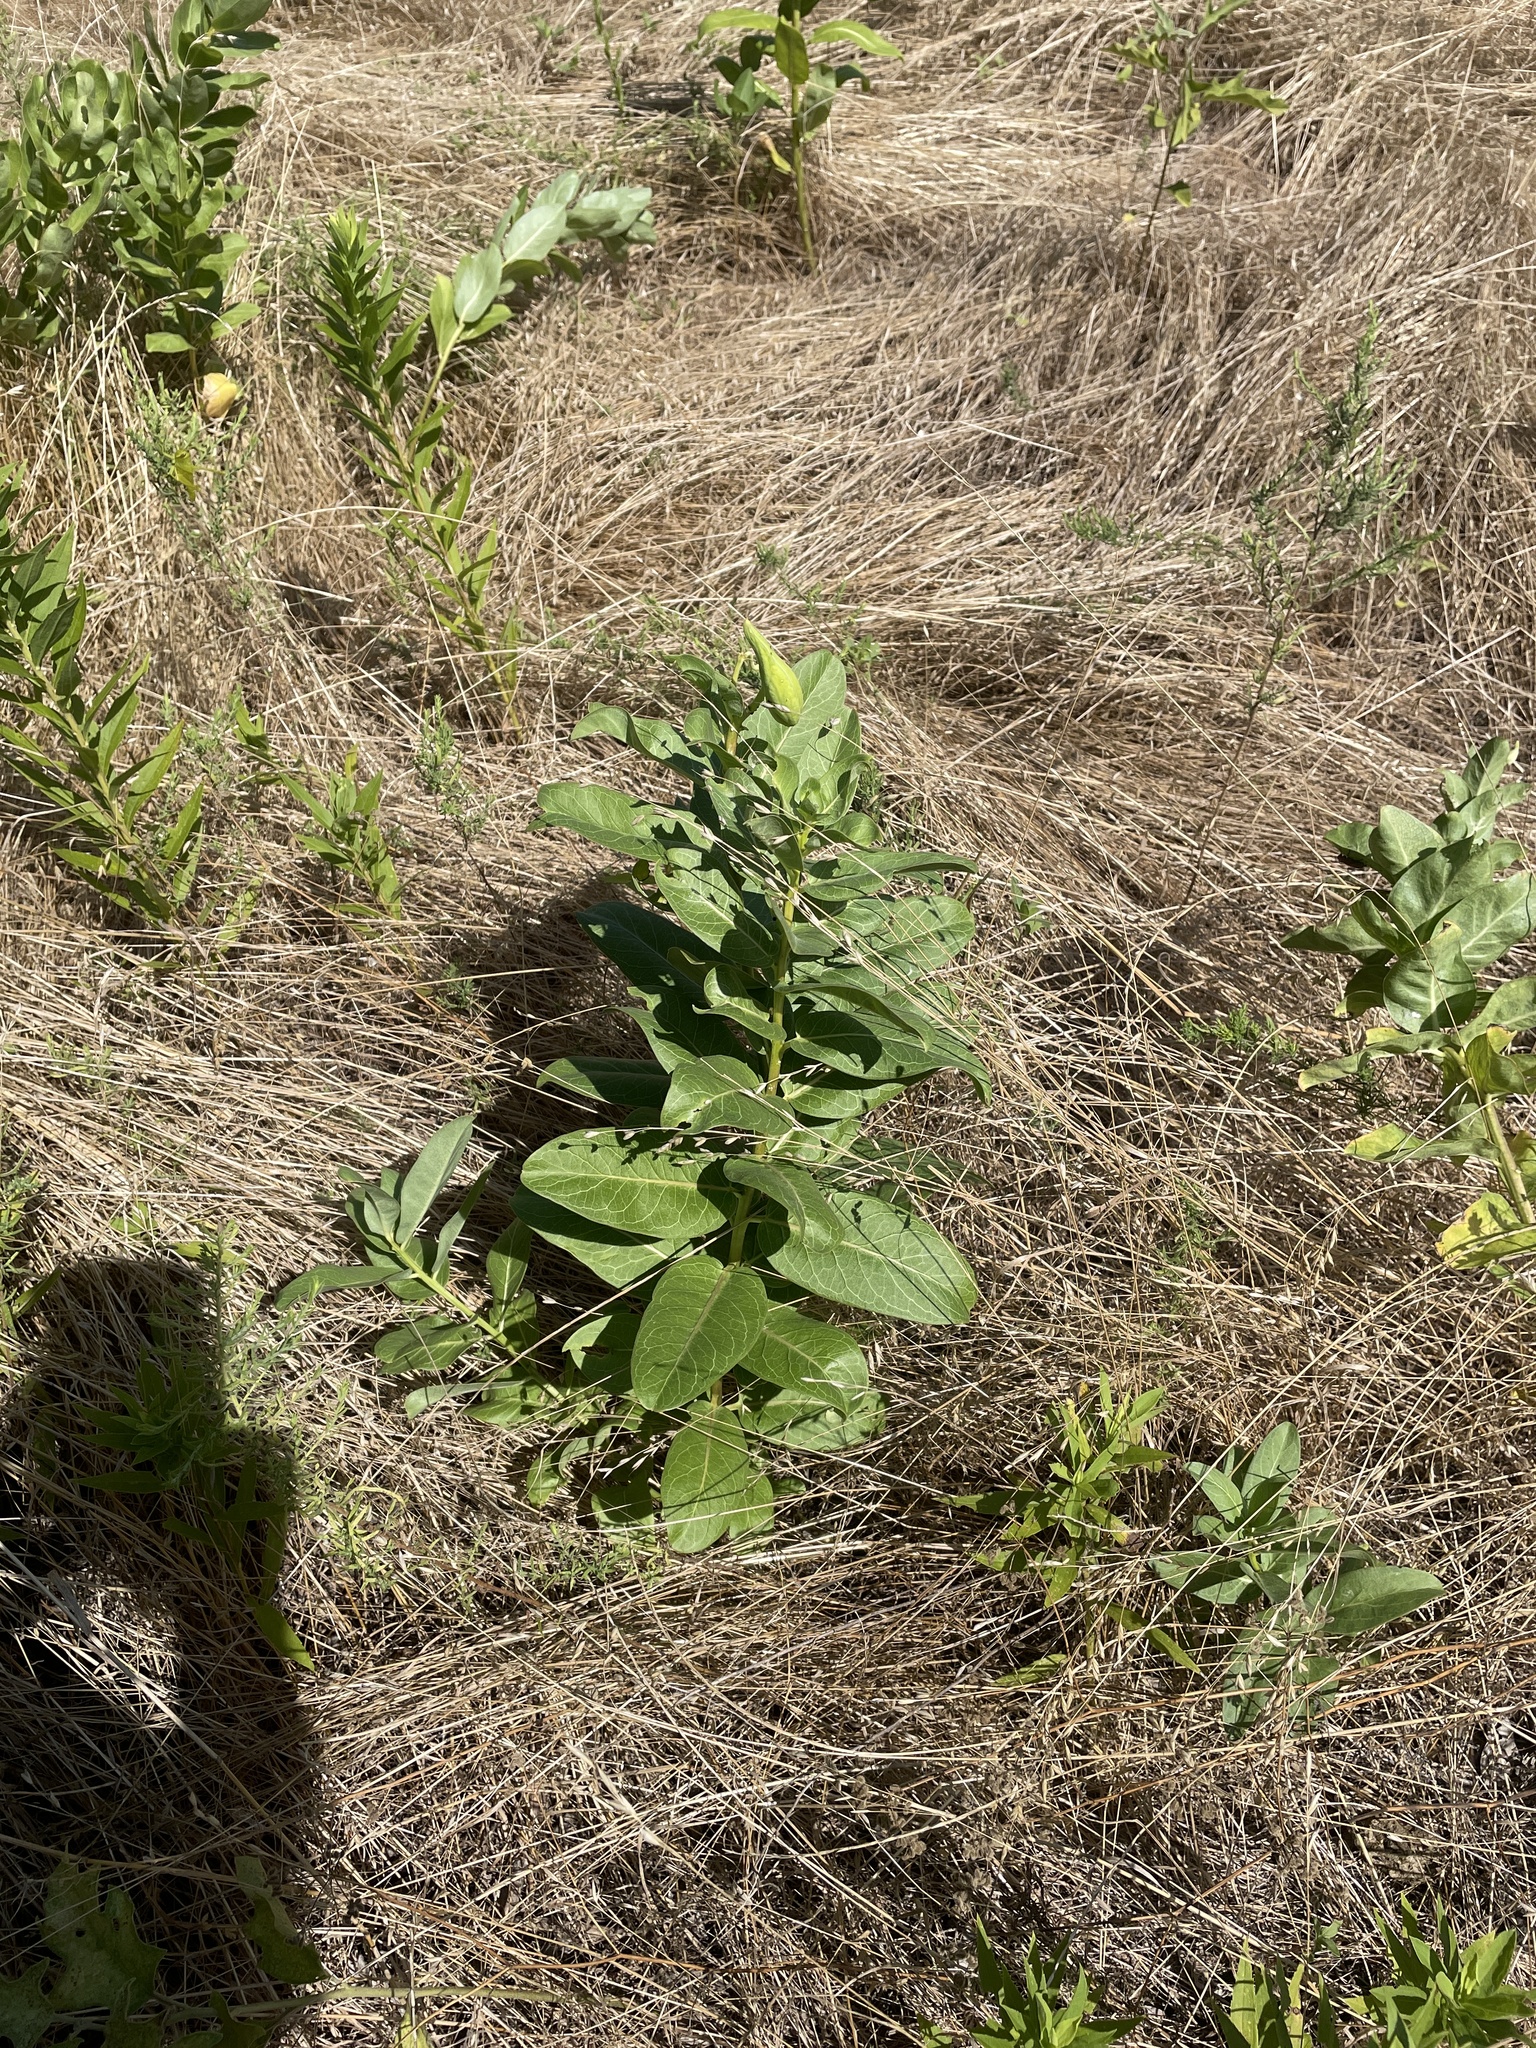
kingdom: Plantae
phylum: Tracheophyta
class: Magnoliopsida
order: Gentianales
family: Apocynaceae
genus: Asclepias
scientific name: Asclepias viridis
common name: Antelope-horns
